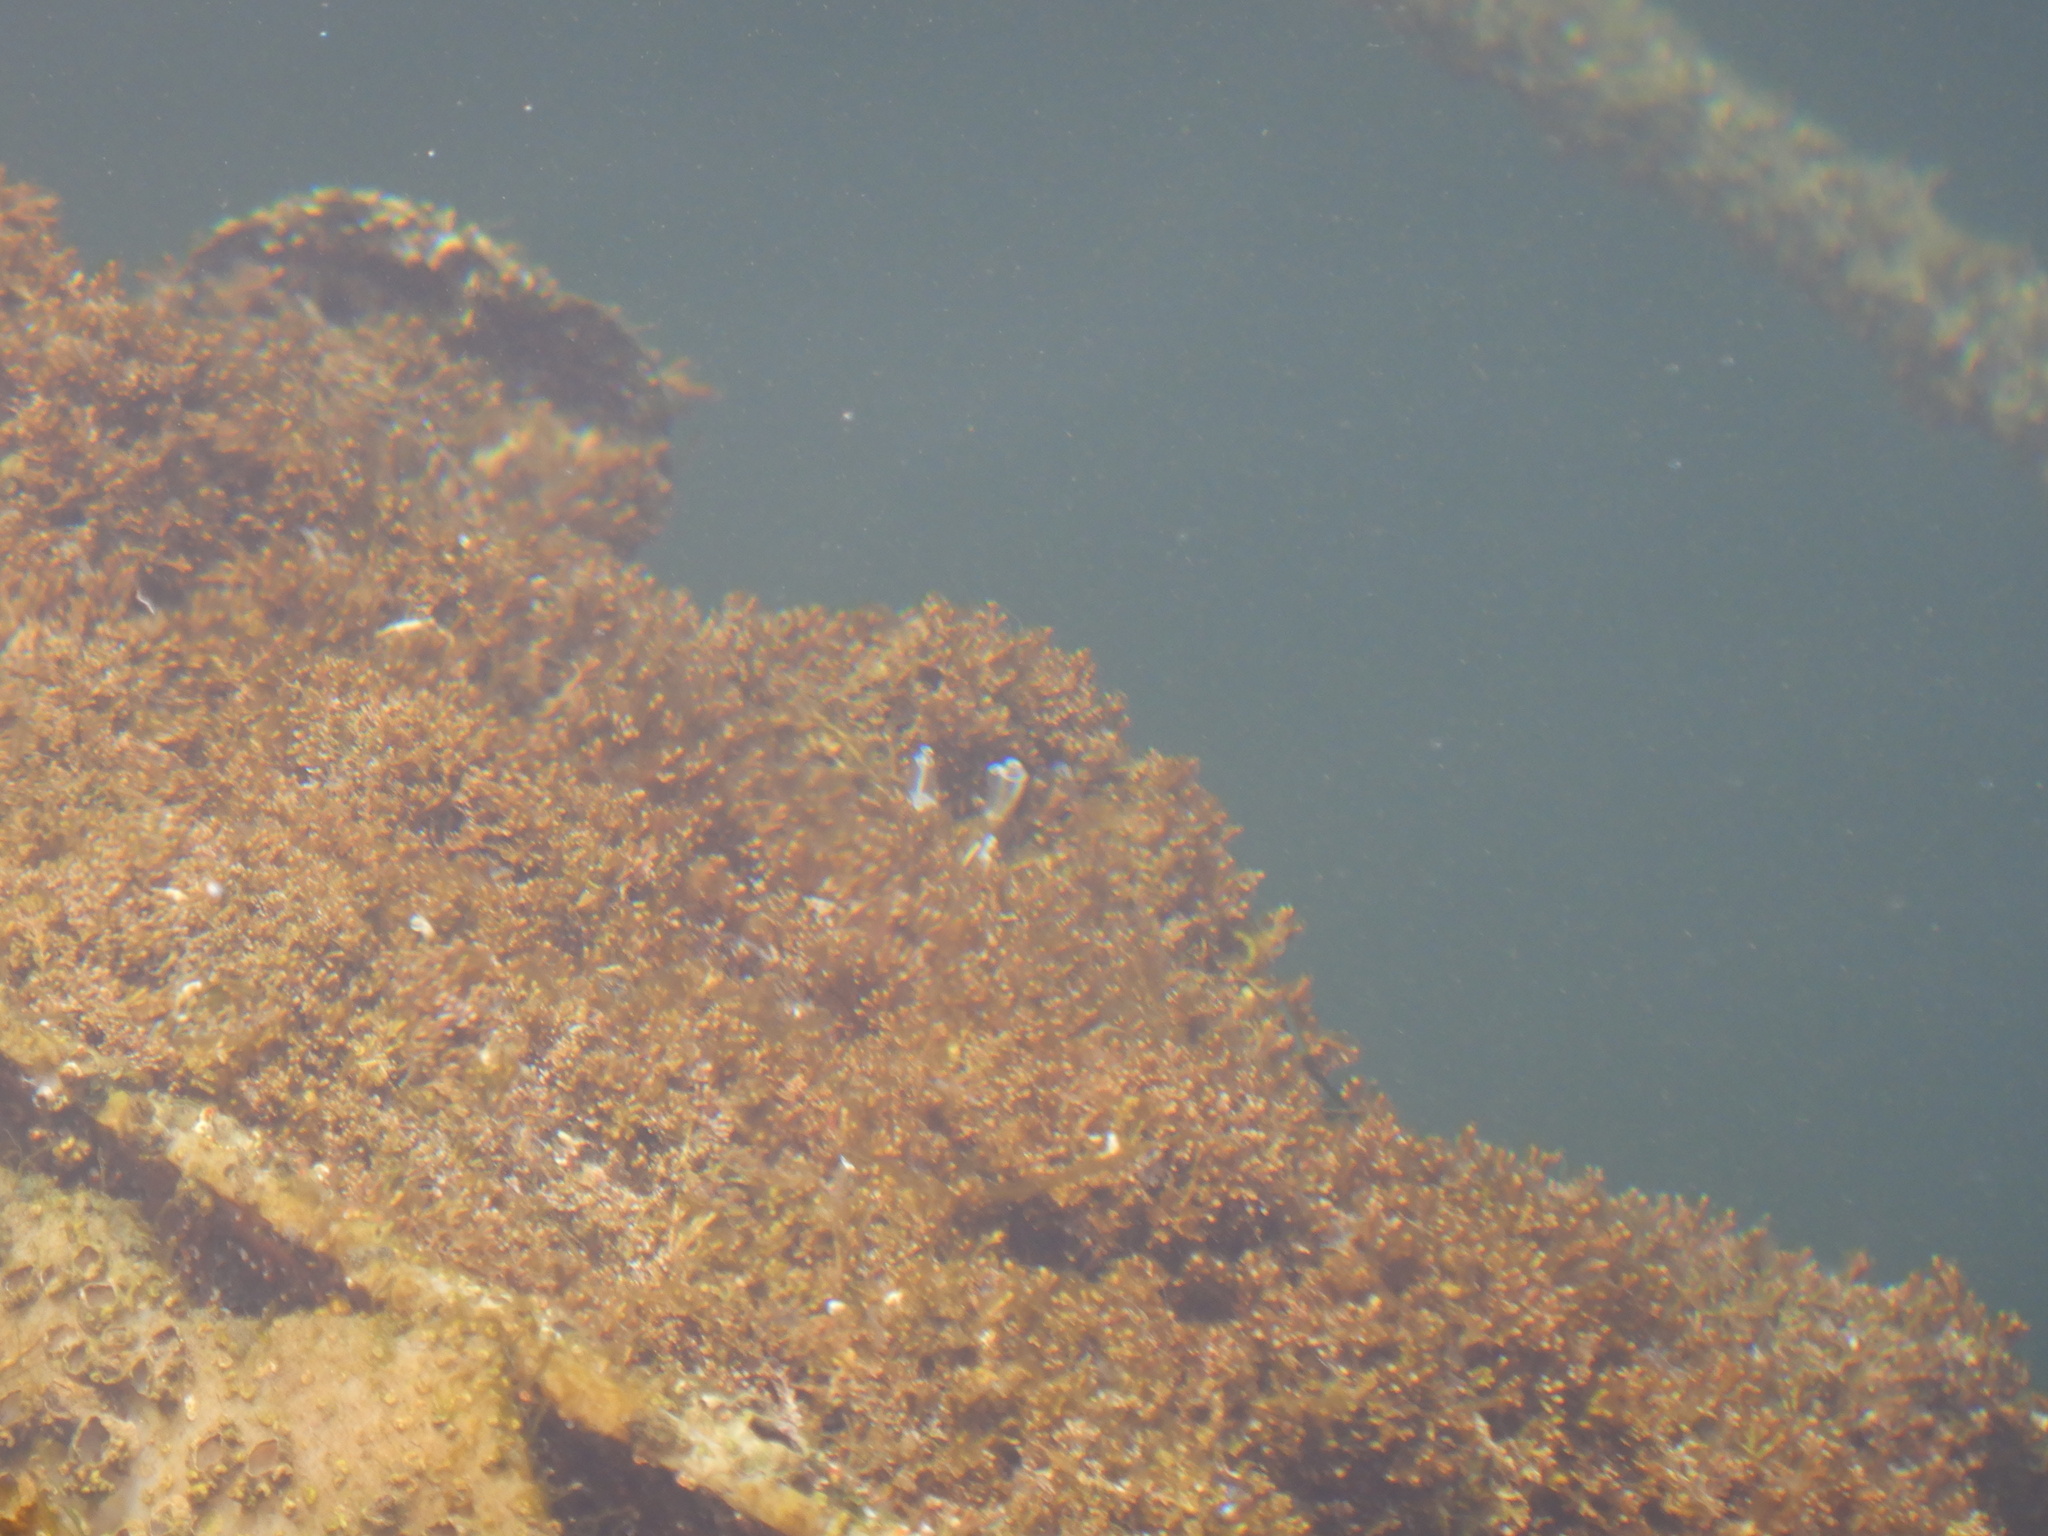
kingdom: Animalia
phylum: Chordata
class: Ascidiacea
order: Aplousobranchia
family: Clavelinidae
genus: Clavelina
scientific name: Clavelina lepadiformis
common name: Light bulb tunicate
